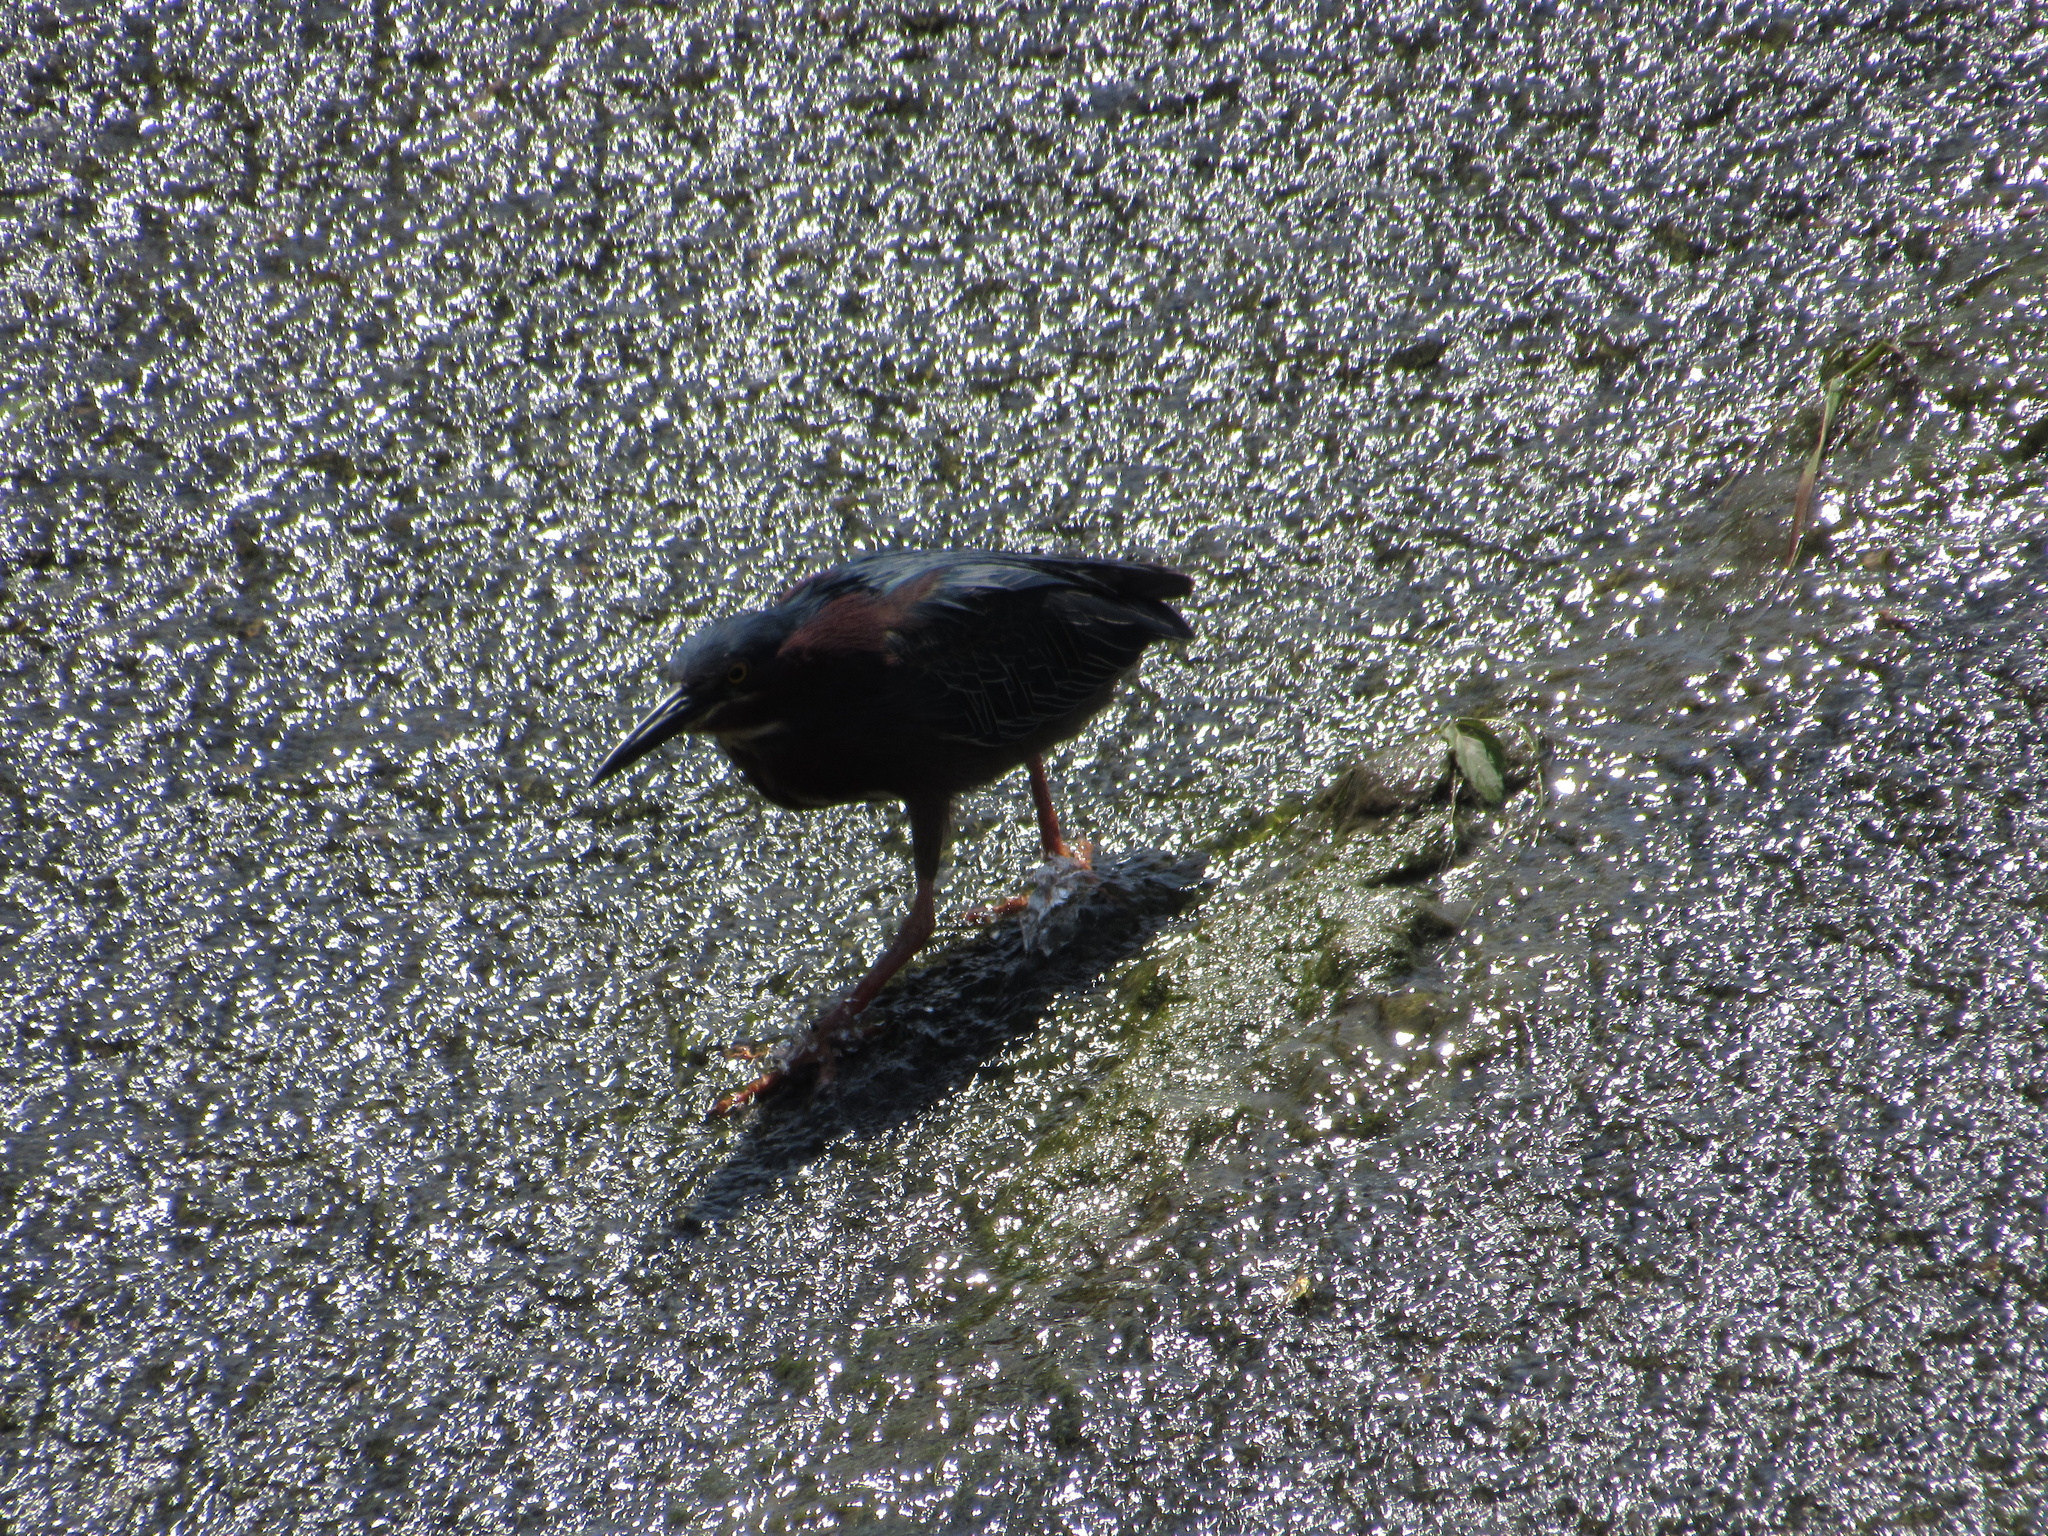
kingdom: Animalia
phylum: Chordata
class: Aves
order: Pelecaniformes
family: Ardeidae
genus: Butorides
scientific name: Butorides virescens
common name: Green heron
